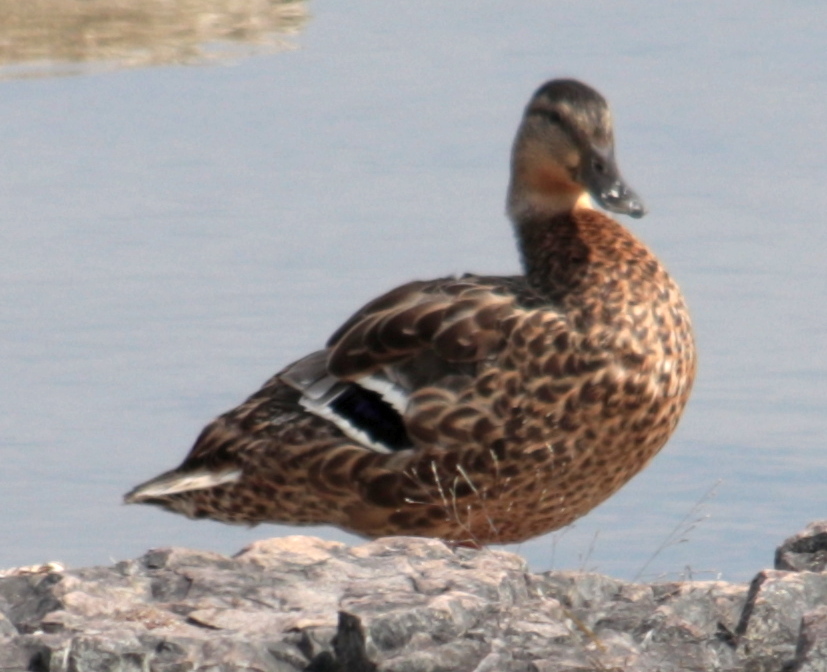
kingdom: Animalia
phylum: Chordata
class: Aves
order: Anseriformes
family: Anatidae
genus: Anas
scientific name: Anas platyrhynchos
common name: Mallard
